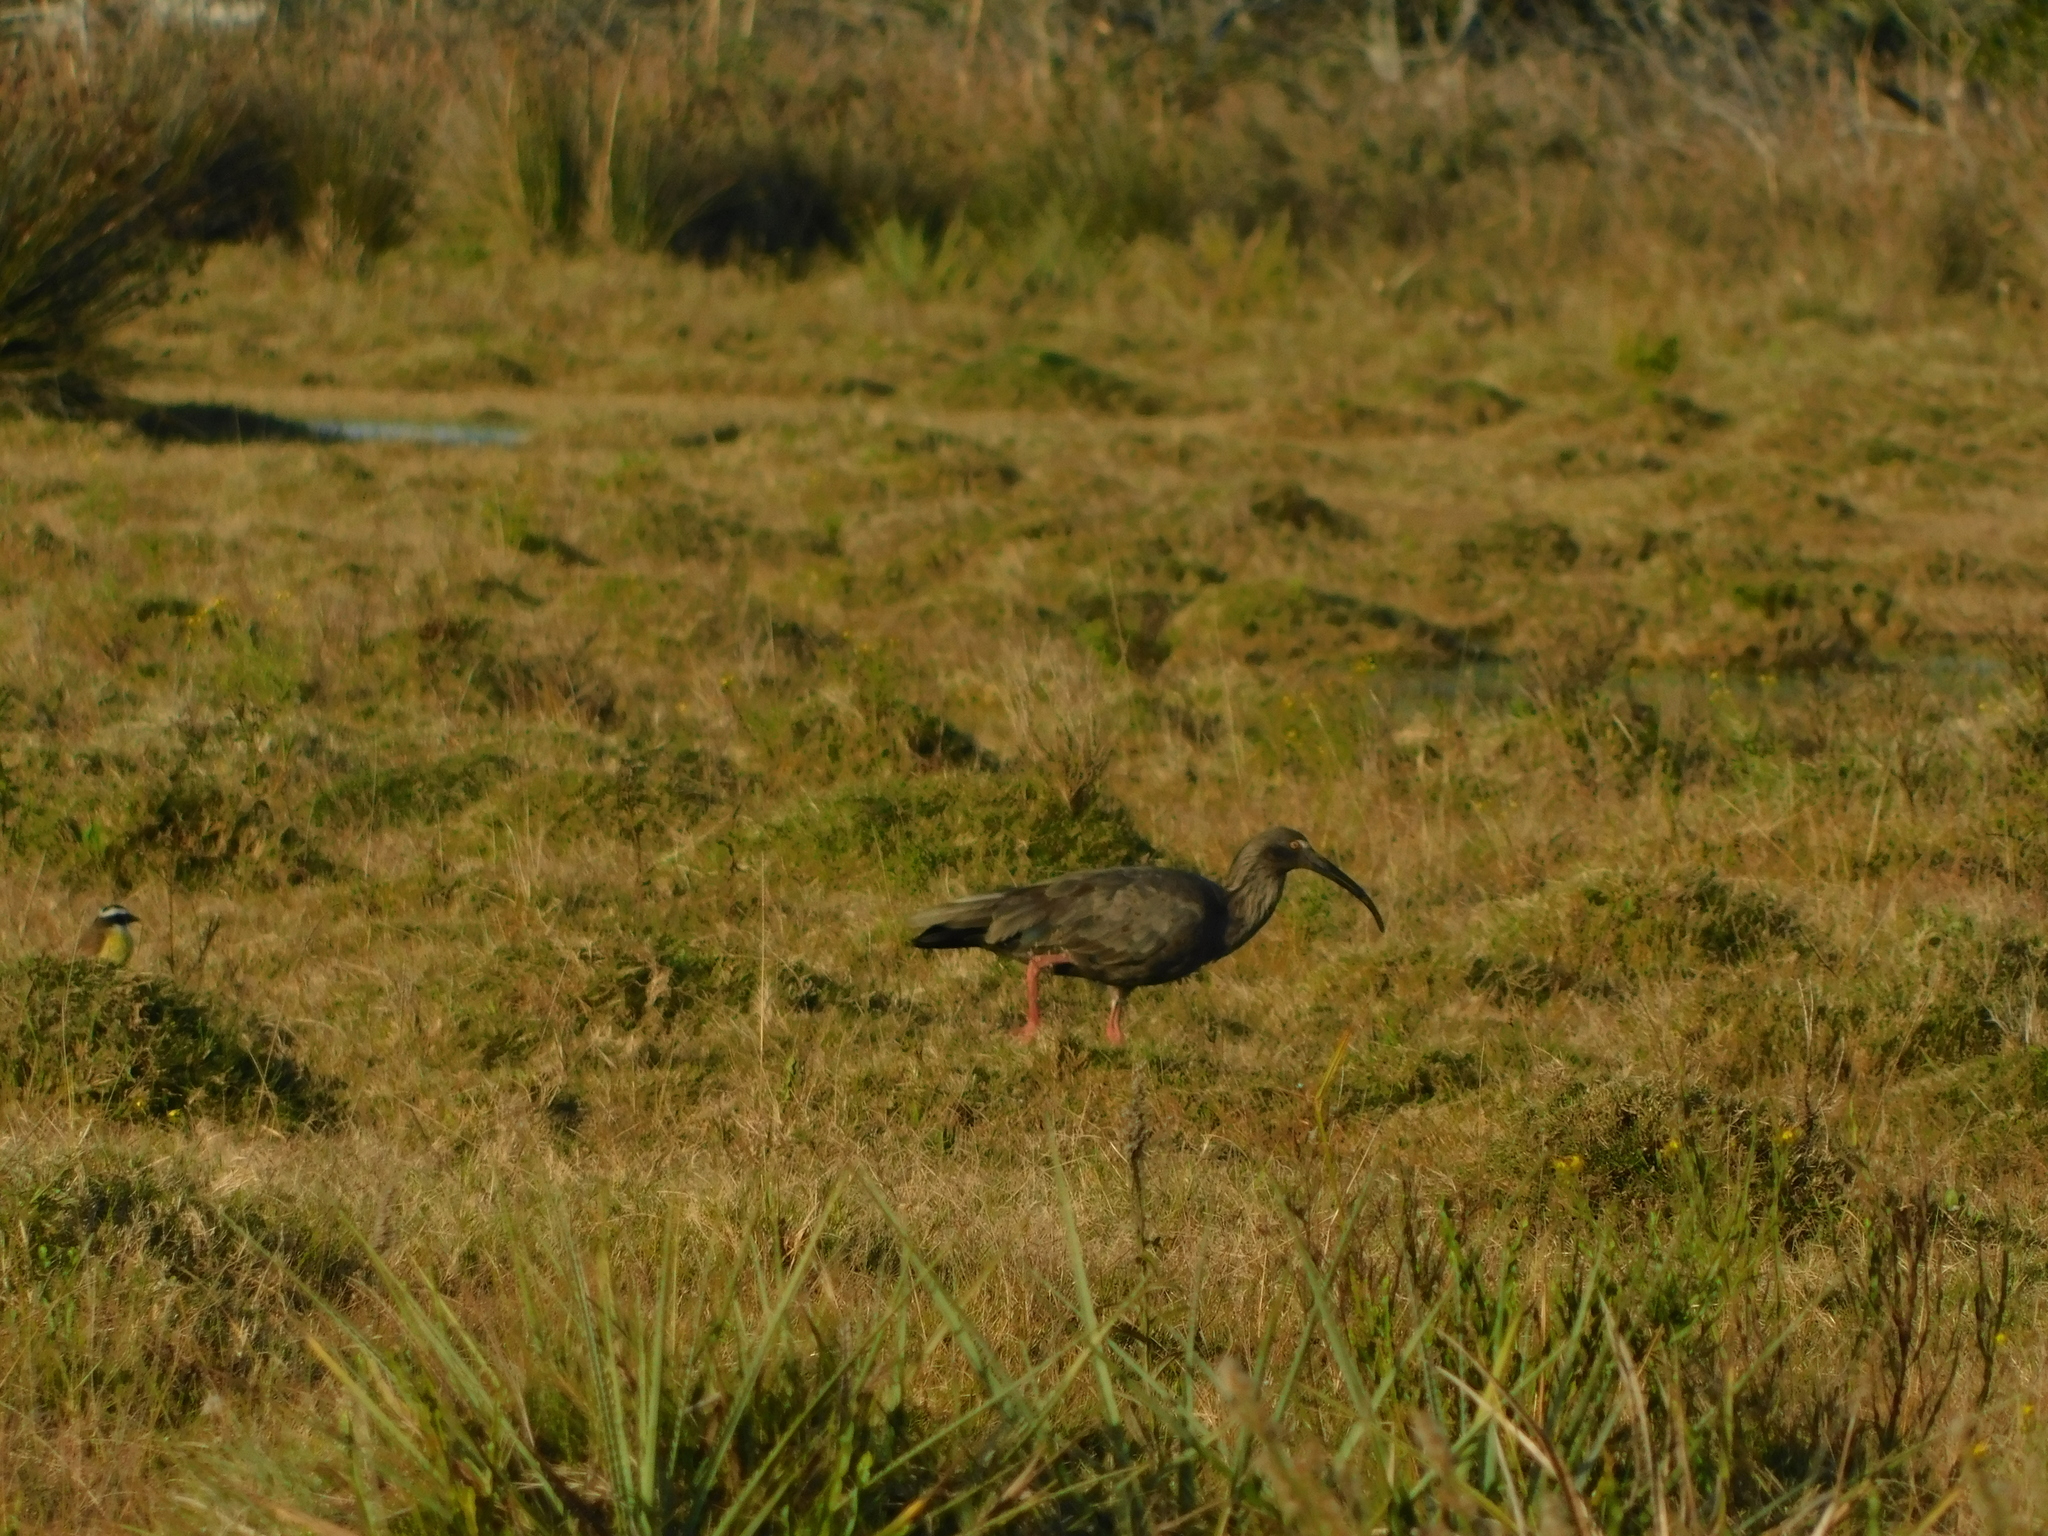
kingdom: Animalia
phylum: Chordata
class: Aves
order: Pelecaniformes
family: Threskiornithidae
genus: Theristicus
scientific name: Theristicus caerulescens
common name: Plumbeous ibis
